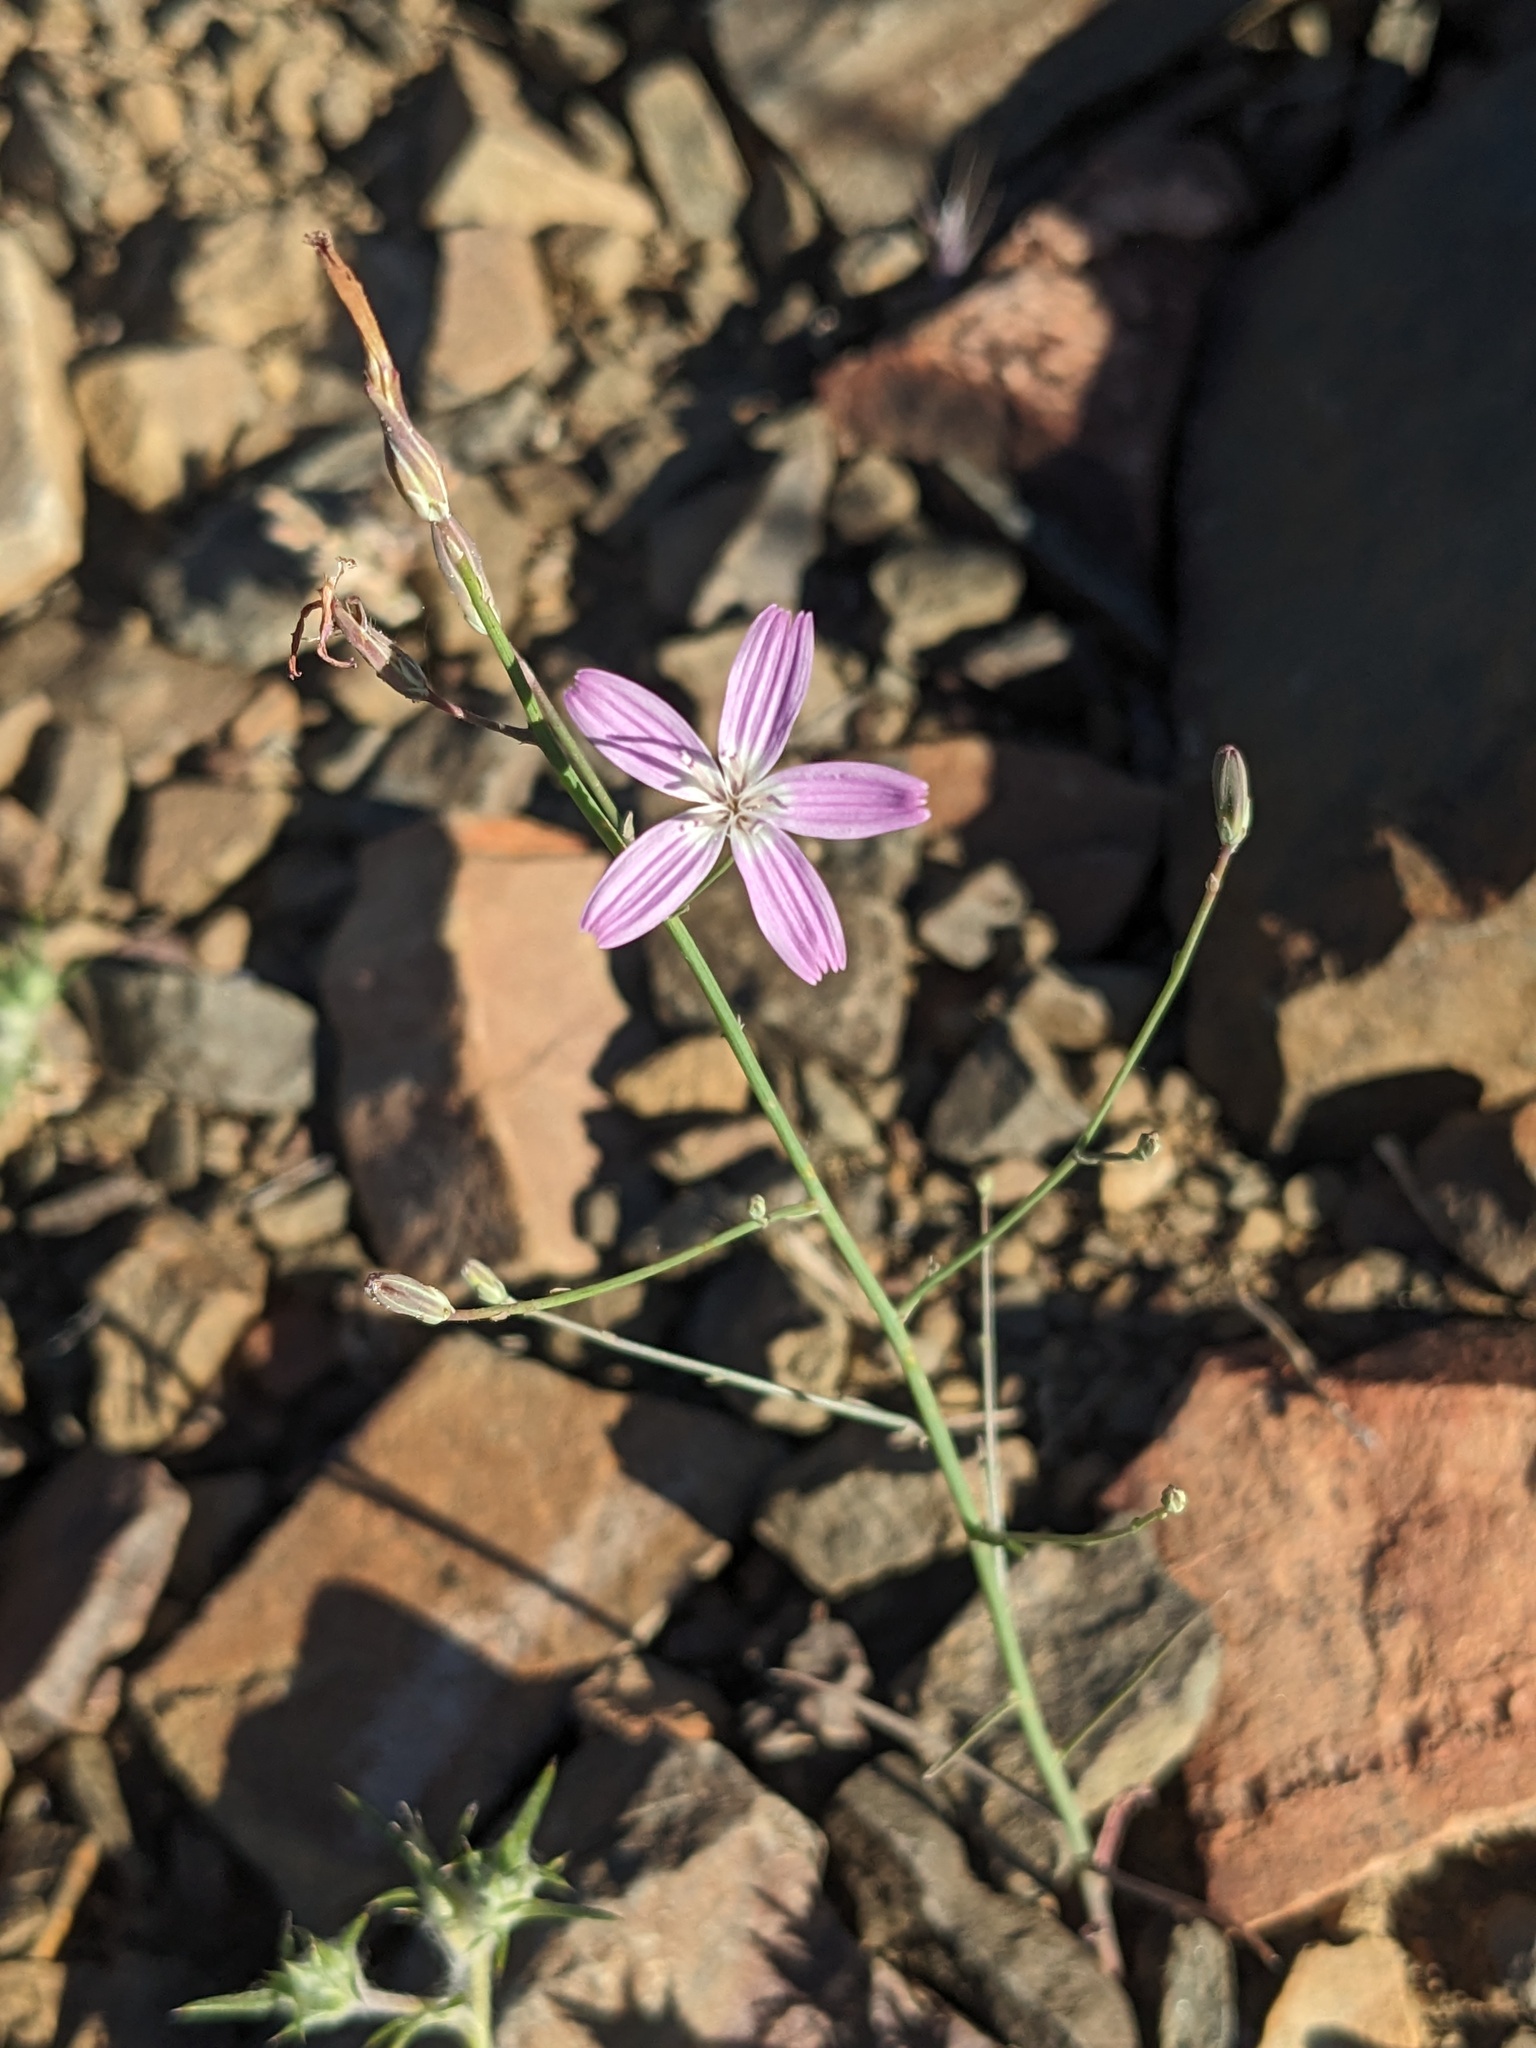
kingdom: Plantae
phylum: Tracheophyta
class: Magnoliopsida
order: Asterales
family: Asteraceae
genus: Stephanomeria
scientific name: Stephanomeria exigua
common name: Small wirelettuce
